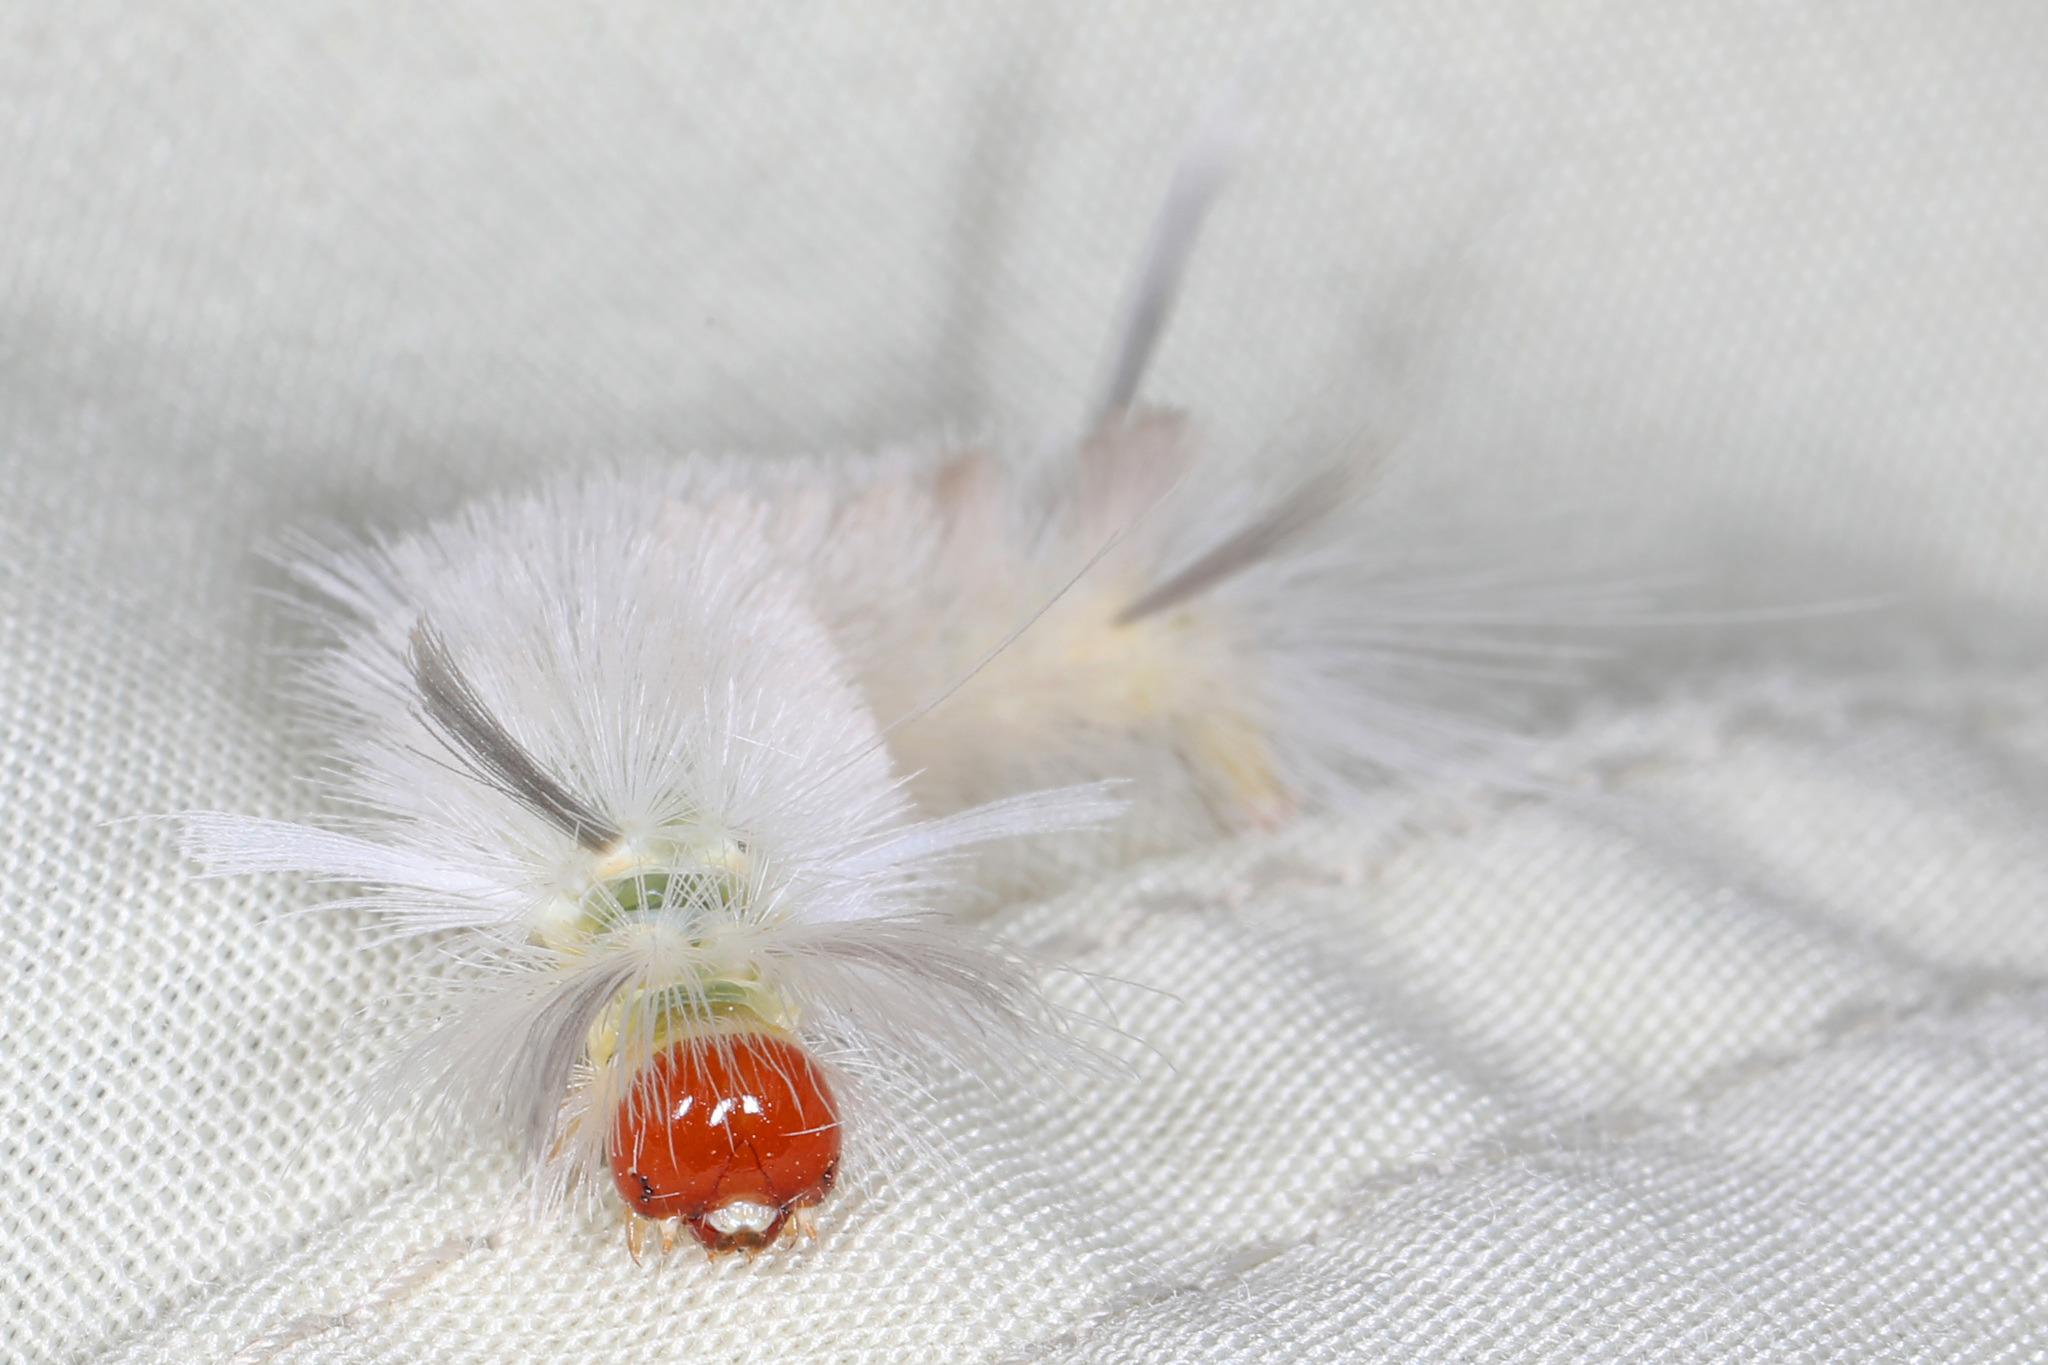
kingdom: Animalia
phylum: Arthropoda
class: Insecta
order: Lepidoptera
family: Erebidae
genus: Halysidota
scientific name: Halysidota tessellaris
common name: Banded tussock moth
